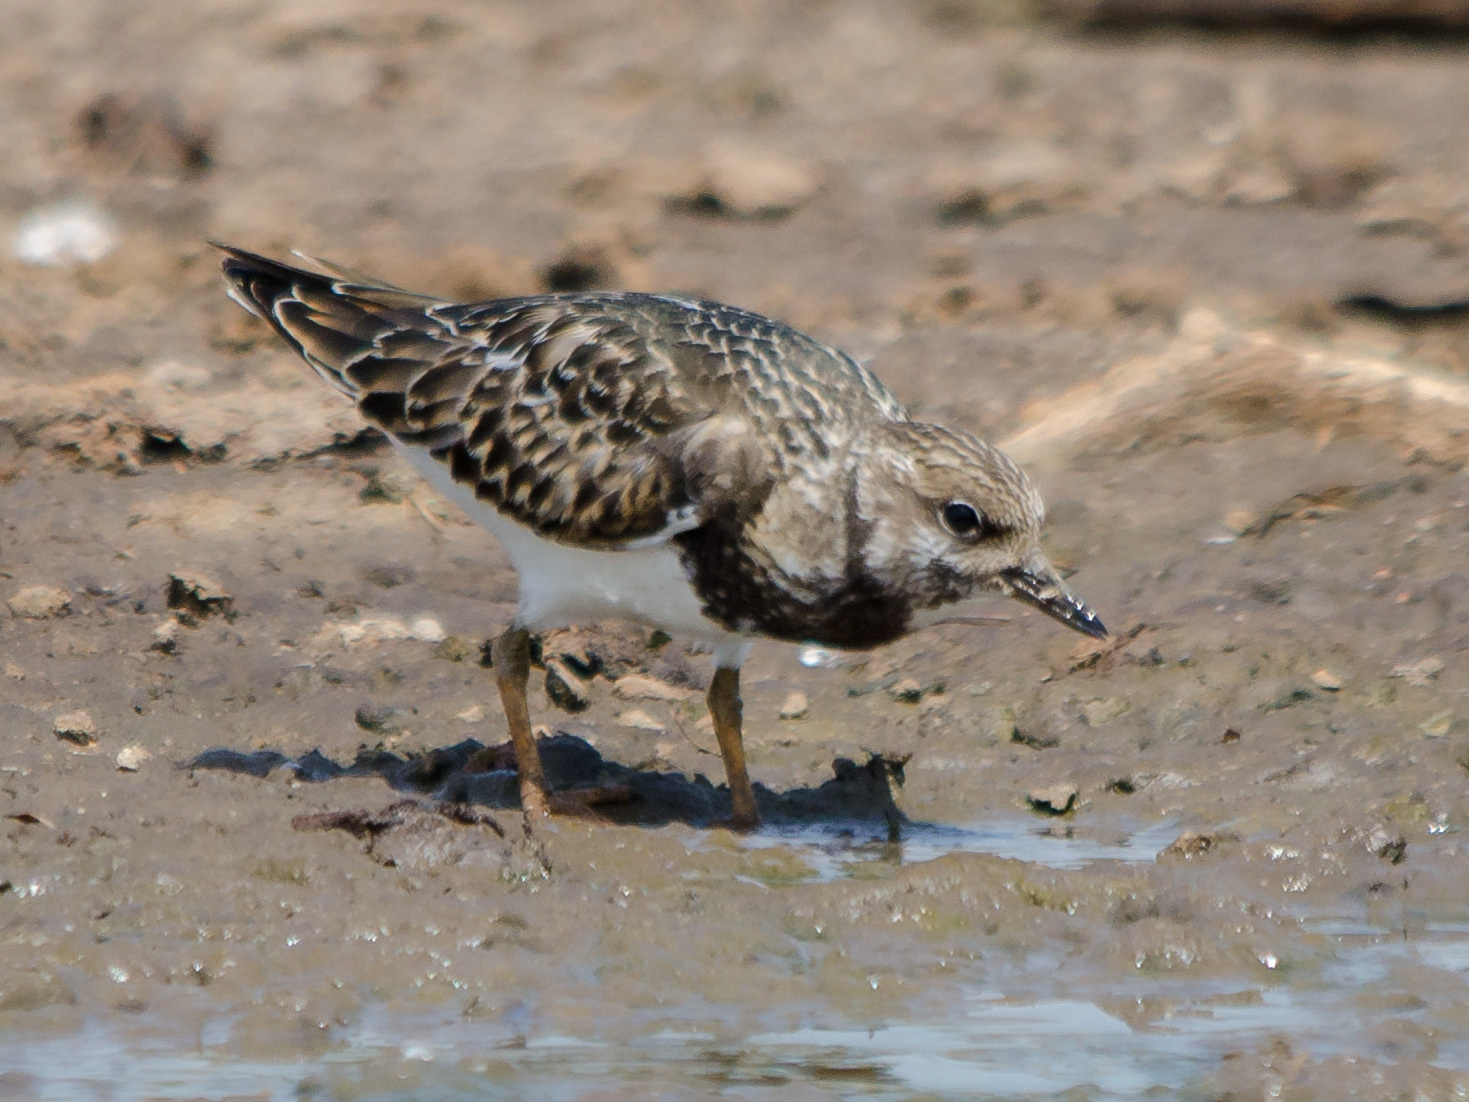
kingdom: Animalia
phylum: Chordata
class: Aves
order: Charadriiformes
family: Scolopacidae
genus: Arenaria
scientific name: Arenaria interpres
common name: Ruddy turnstone
